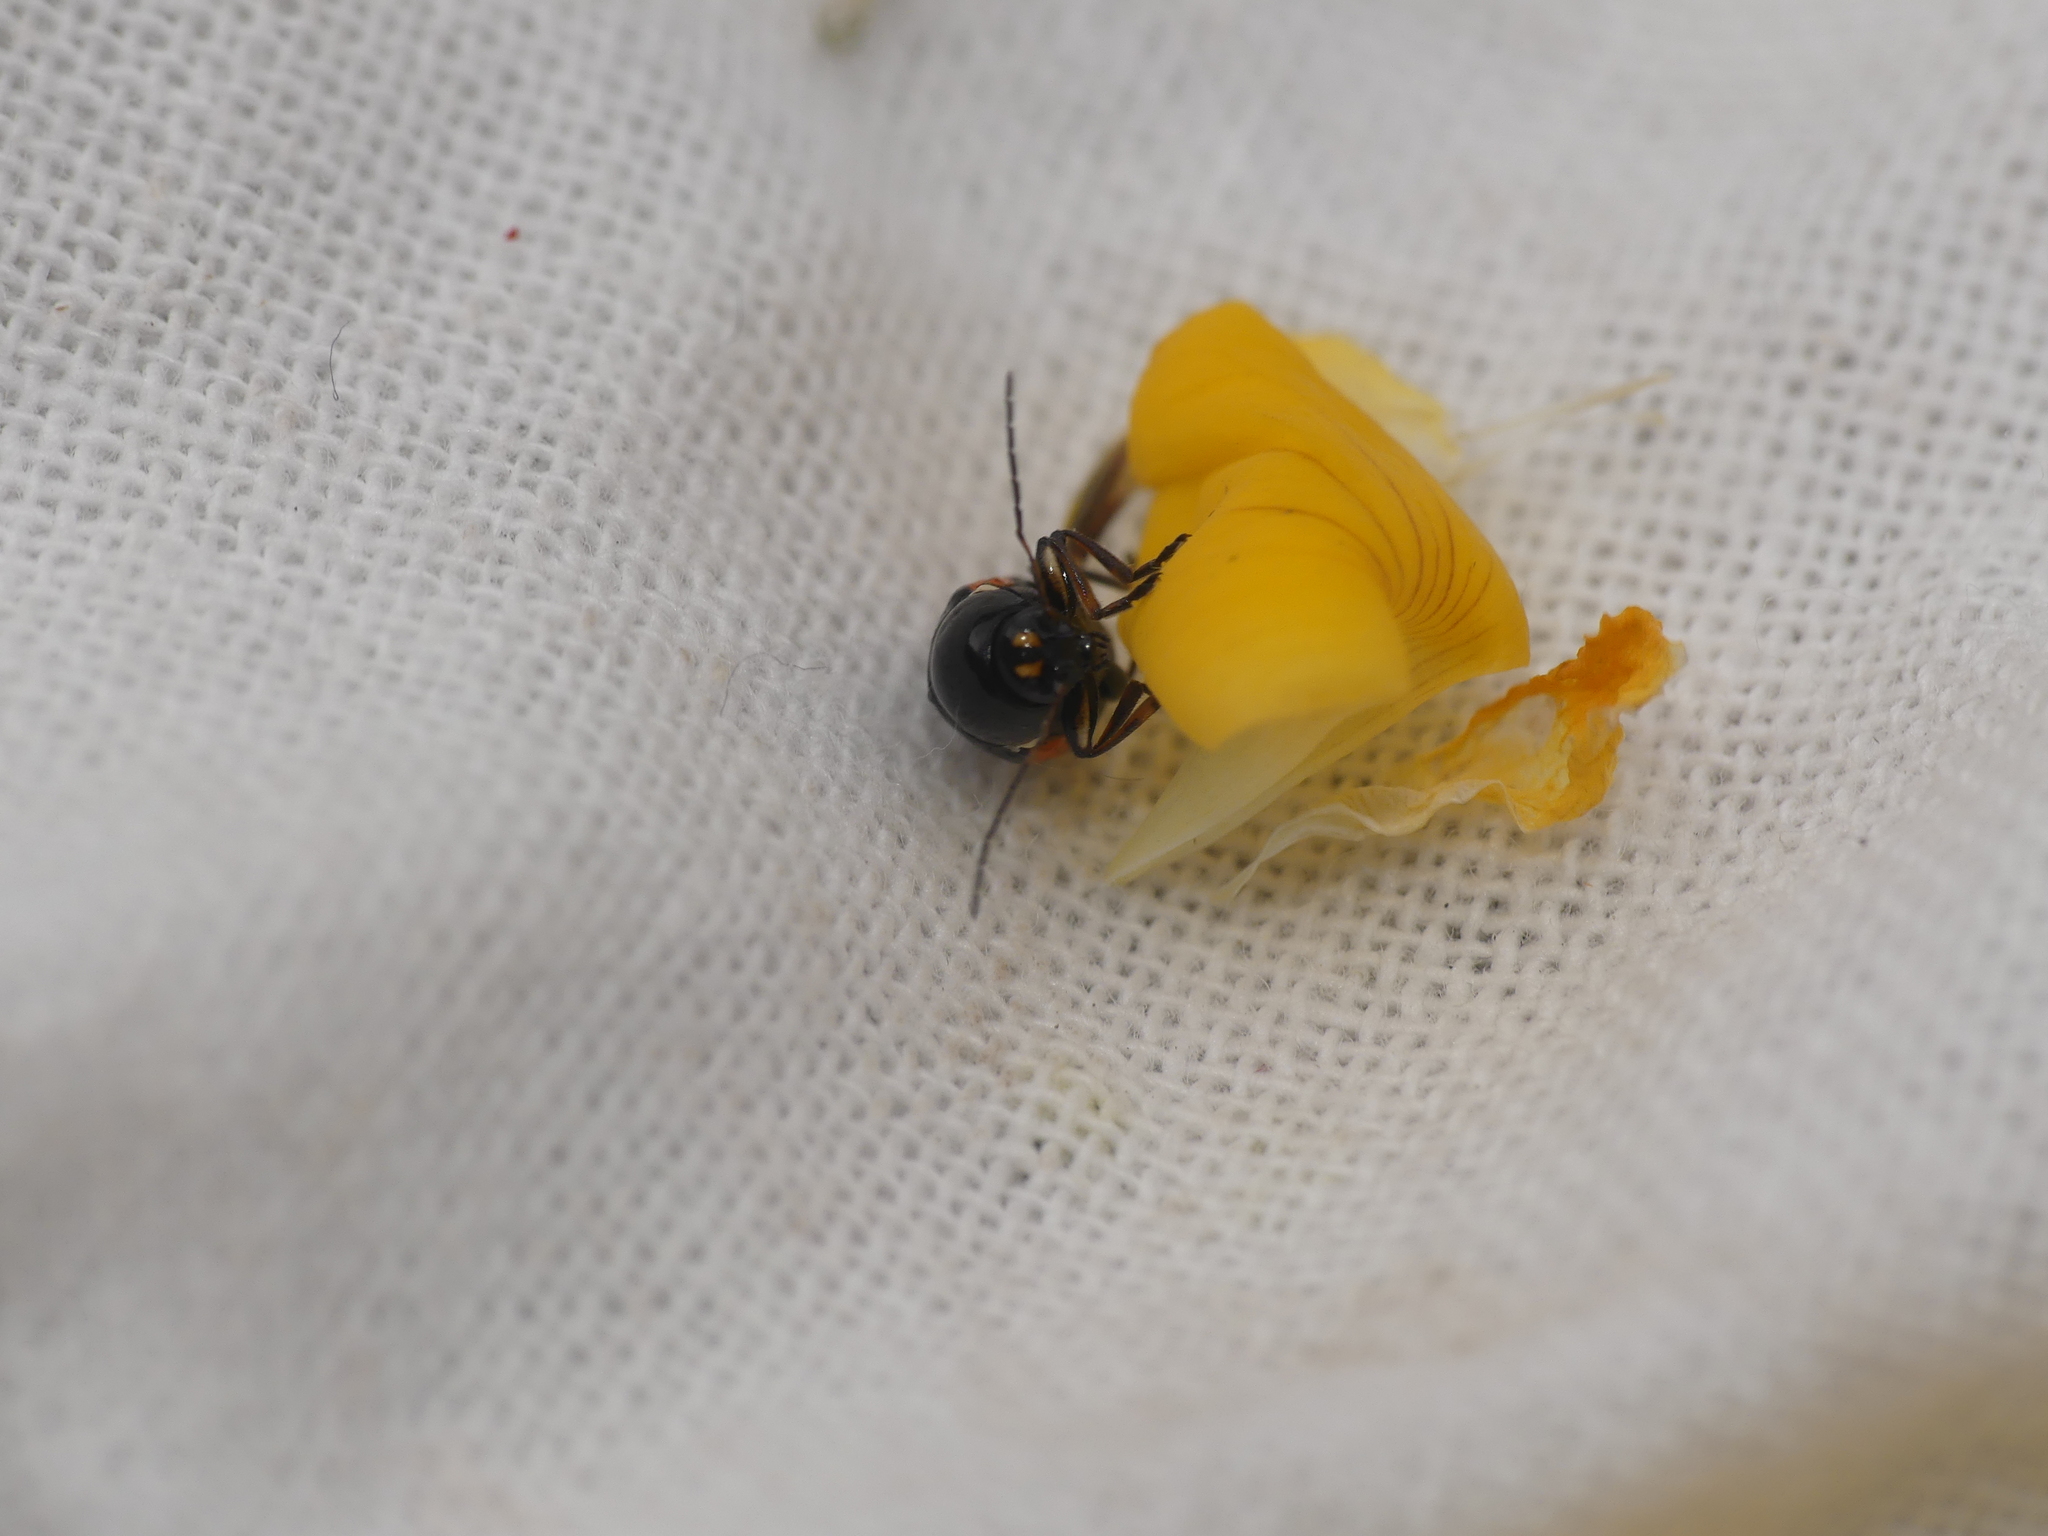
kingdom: Animalia
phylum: Arthropoda
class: Insecta
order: Coleoptera
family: Chrysomelidae
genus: Cryptocephalus
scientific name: Cryptocephalus moraei
